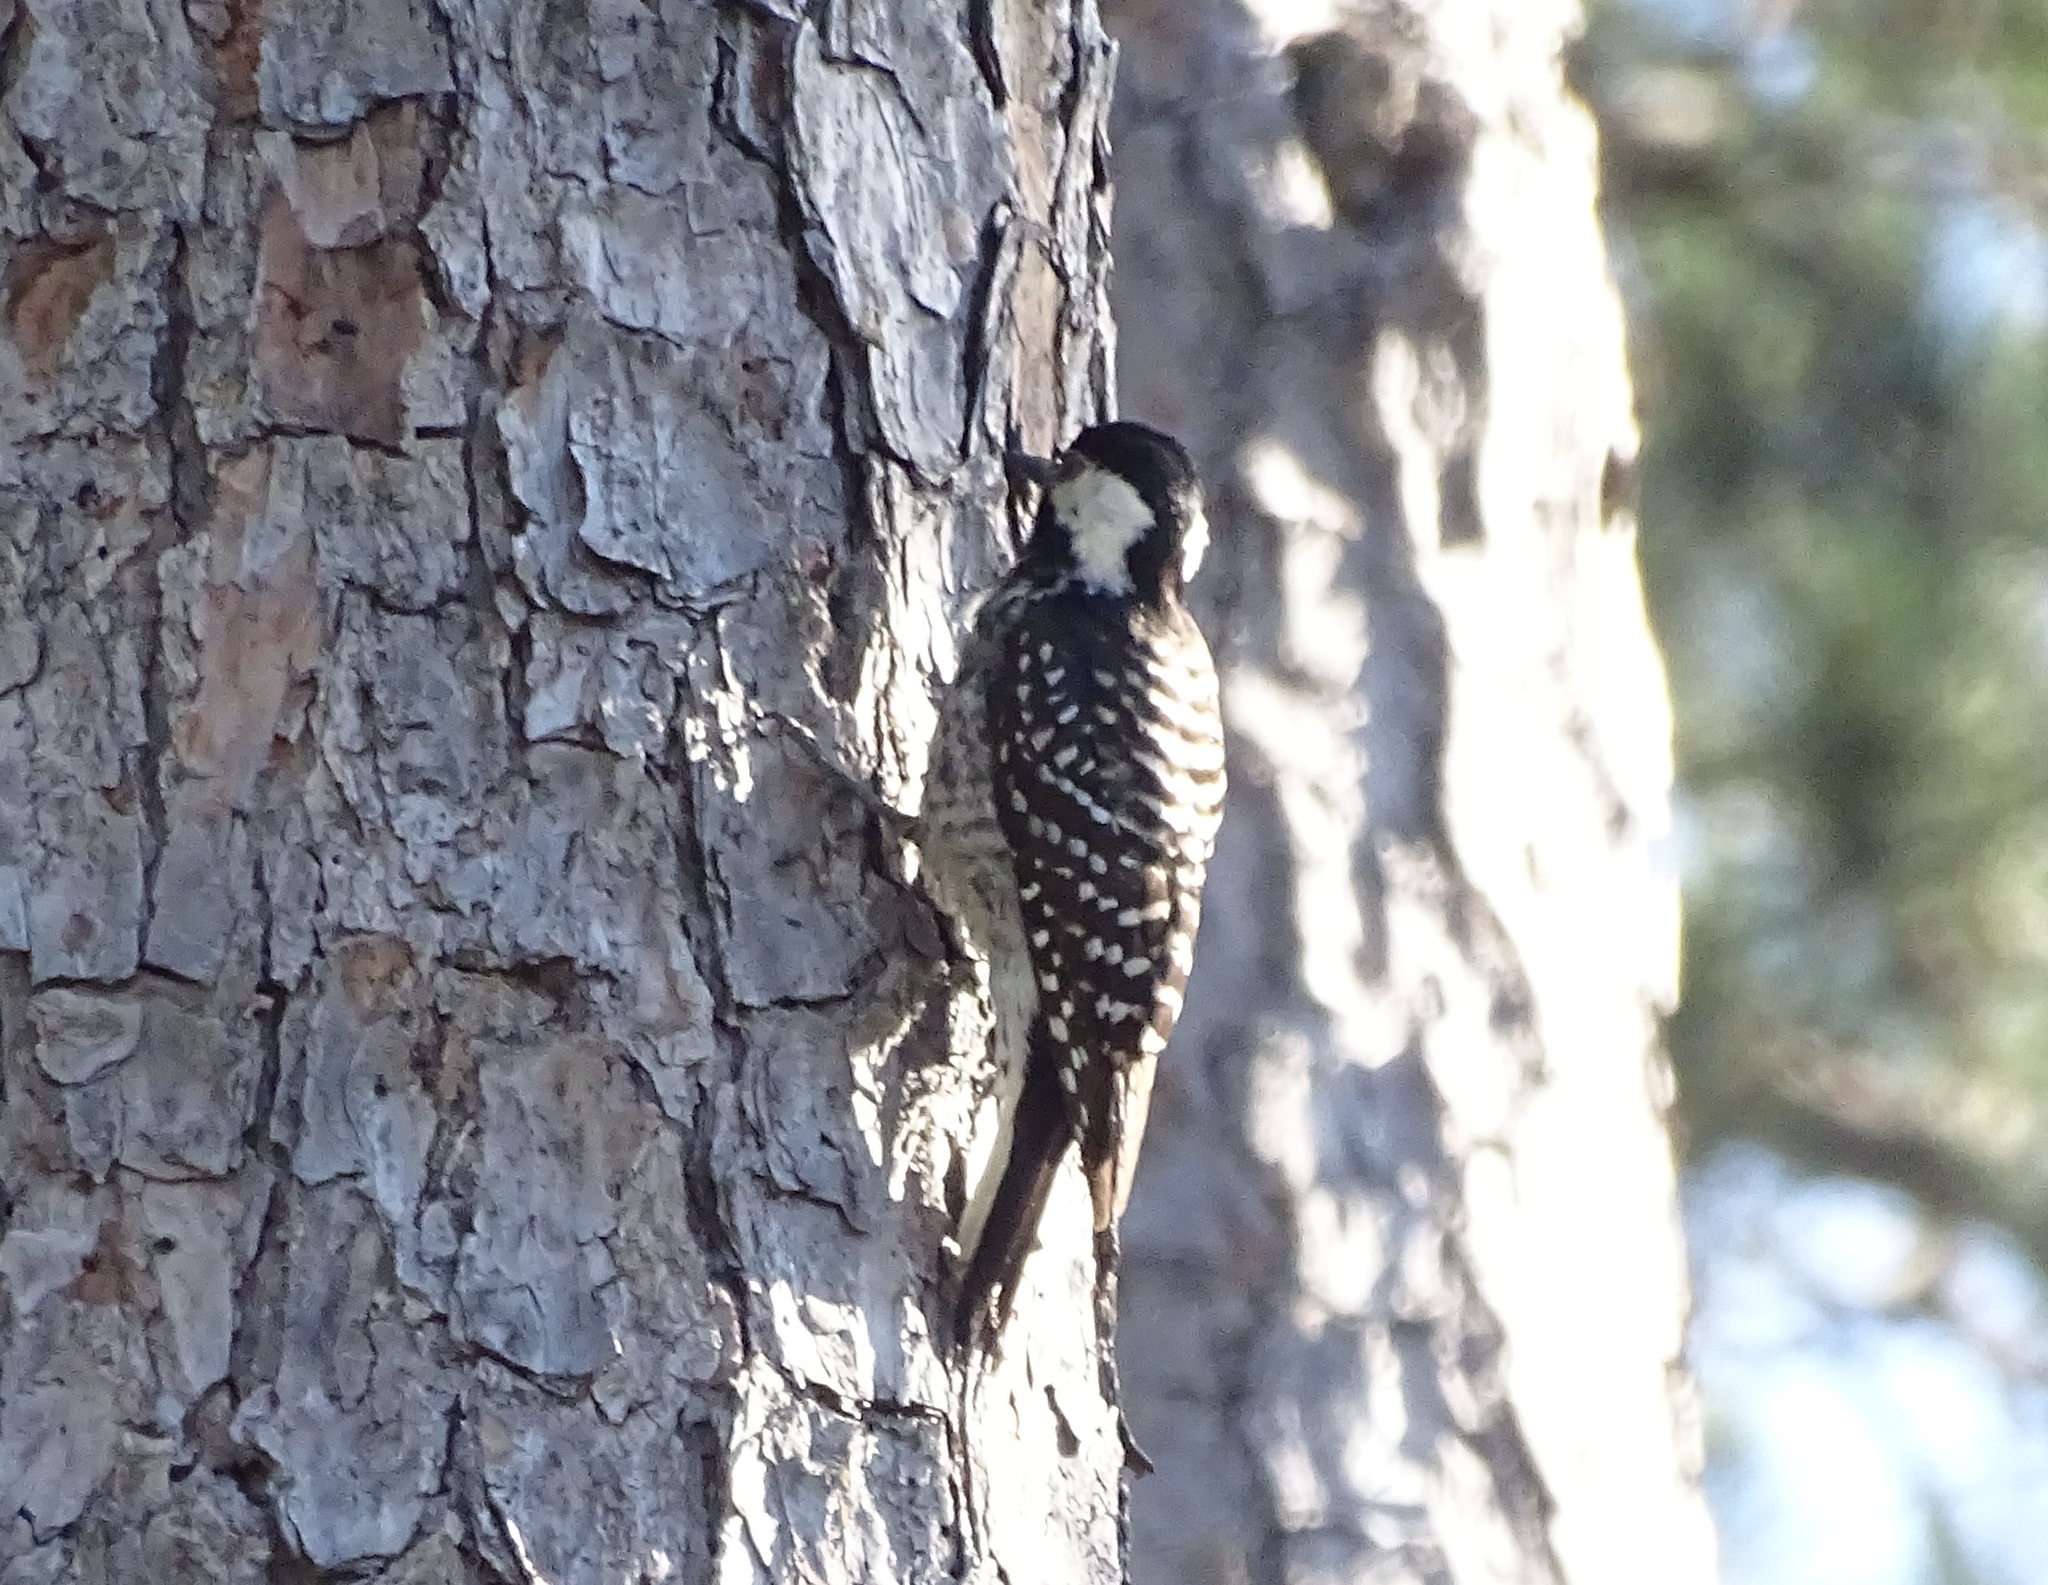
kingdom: Animalia
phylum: Chordata
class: Aves
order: Piciformes
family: Picidae
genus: Leuconotopicus
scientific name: Leuconotopicus borealis
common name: Red-cockaded woodpecker
